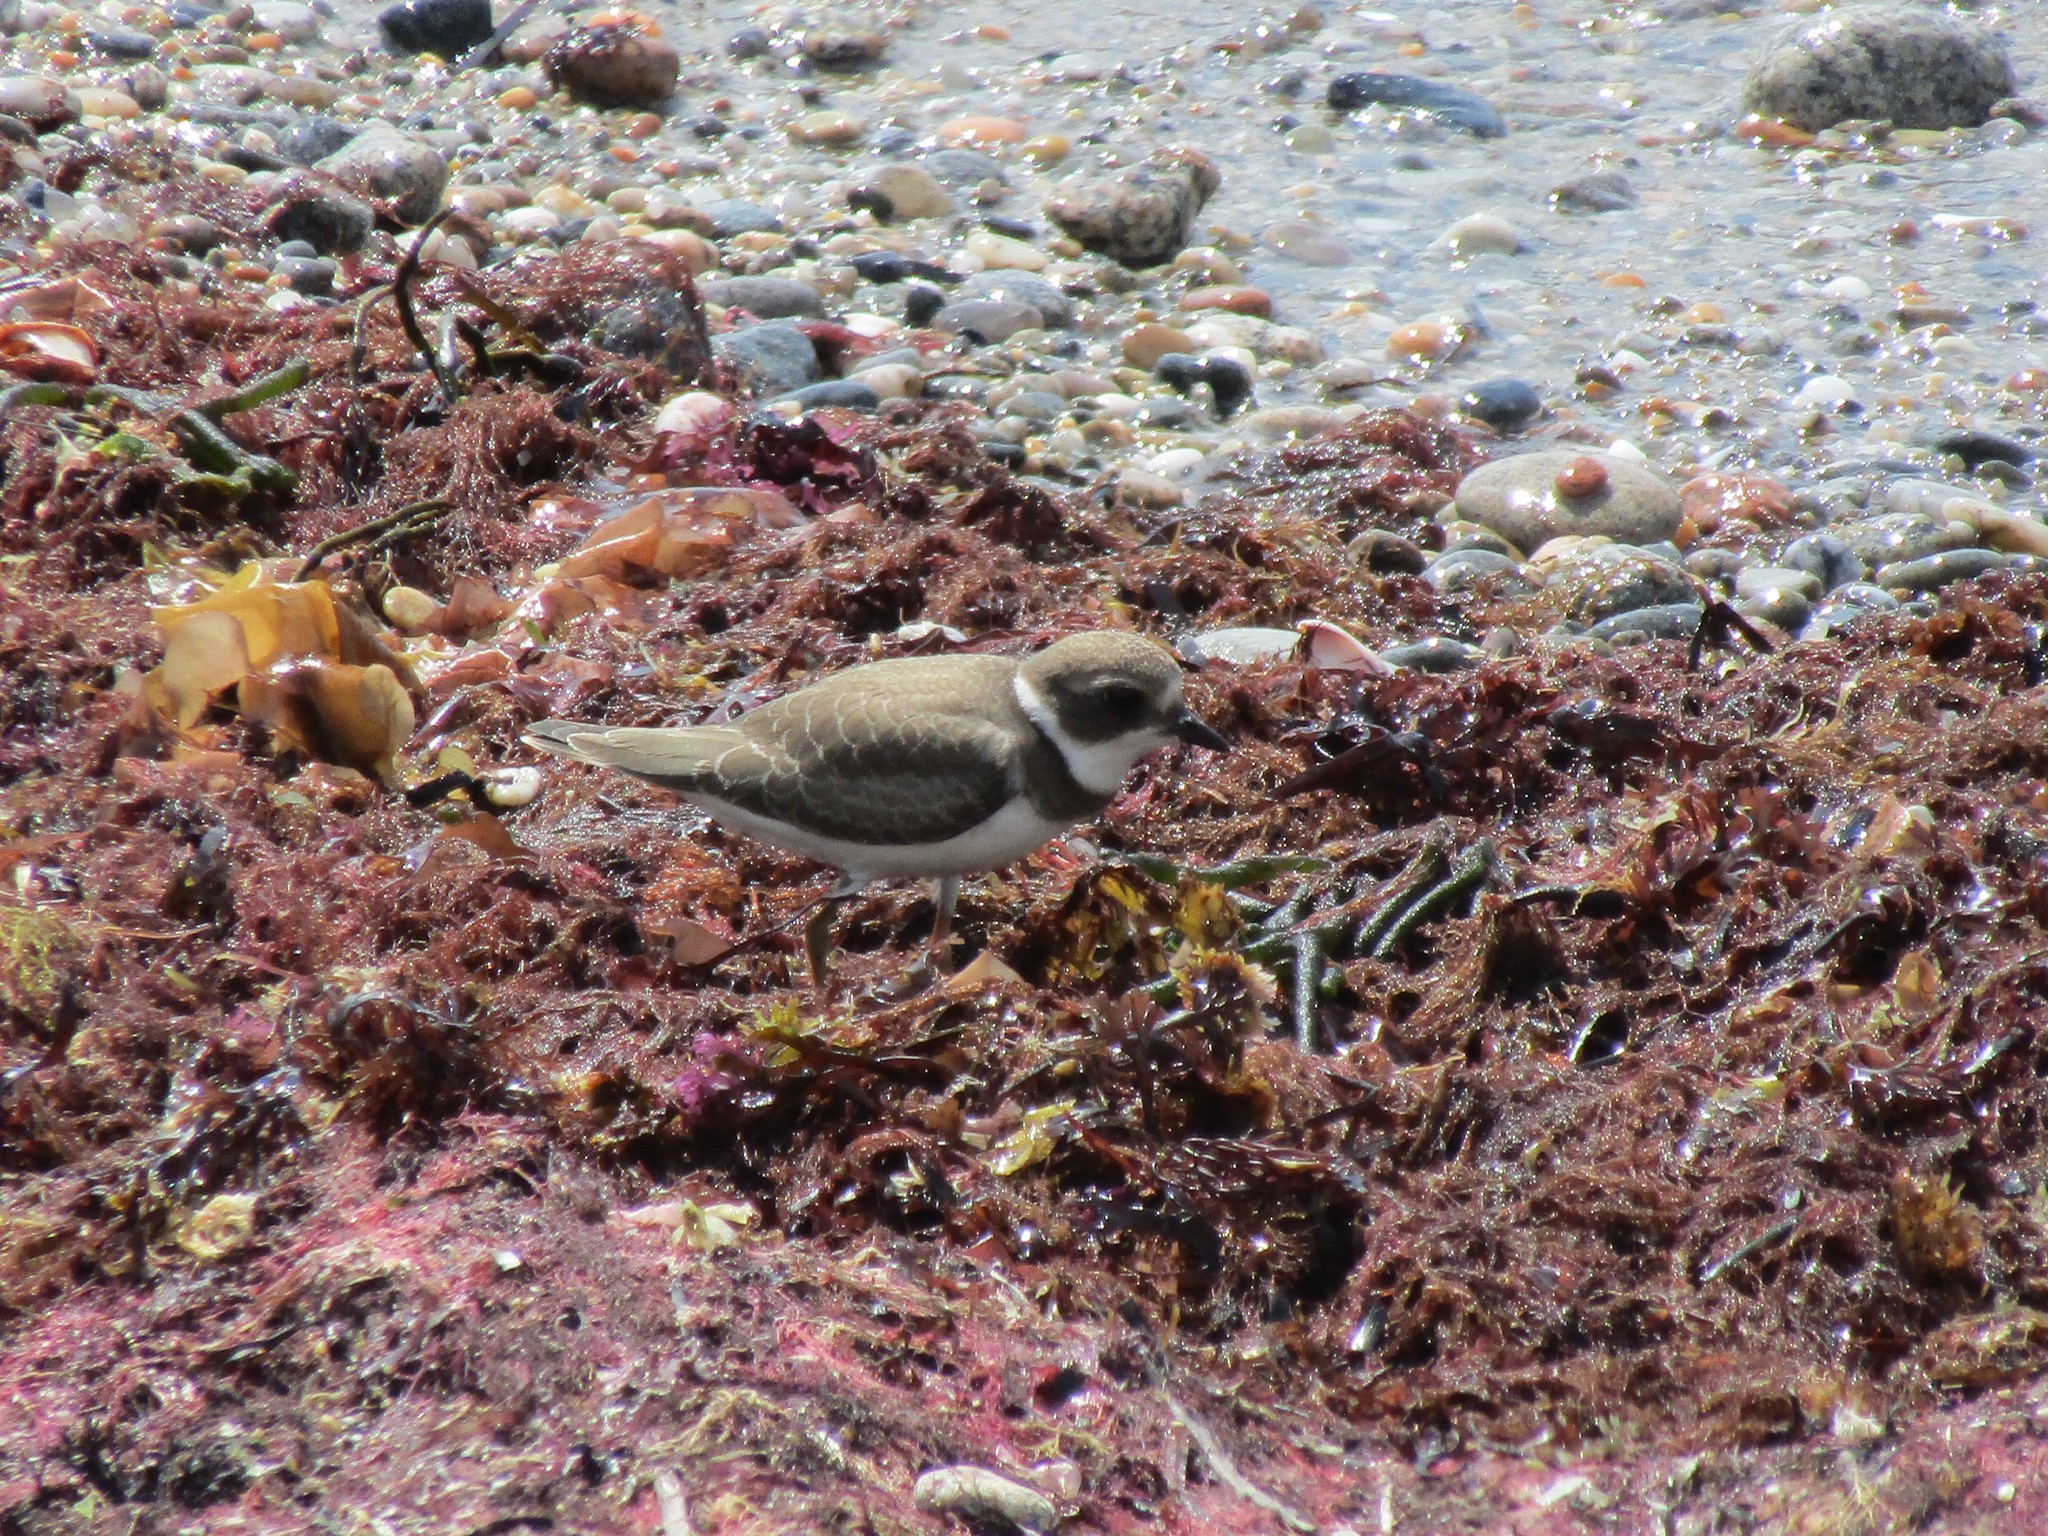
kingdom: Animalia
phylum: Chordata
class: Aves
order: Charadriiformes
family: Charadriidae
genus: Charadrius
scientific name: Charadrius semipalmatus
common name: Semipalmated plover
